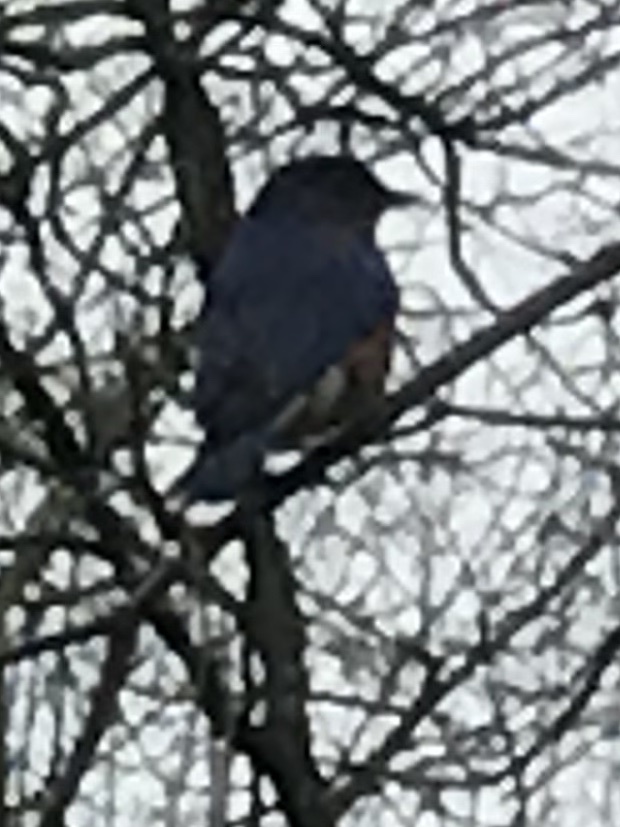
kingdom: Animalia
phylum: Chordata
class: Aves
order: Passeriformes
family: Turdidae
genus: Sialia
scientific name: Sialia sialis
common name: Eastern bluebird
